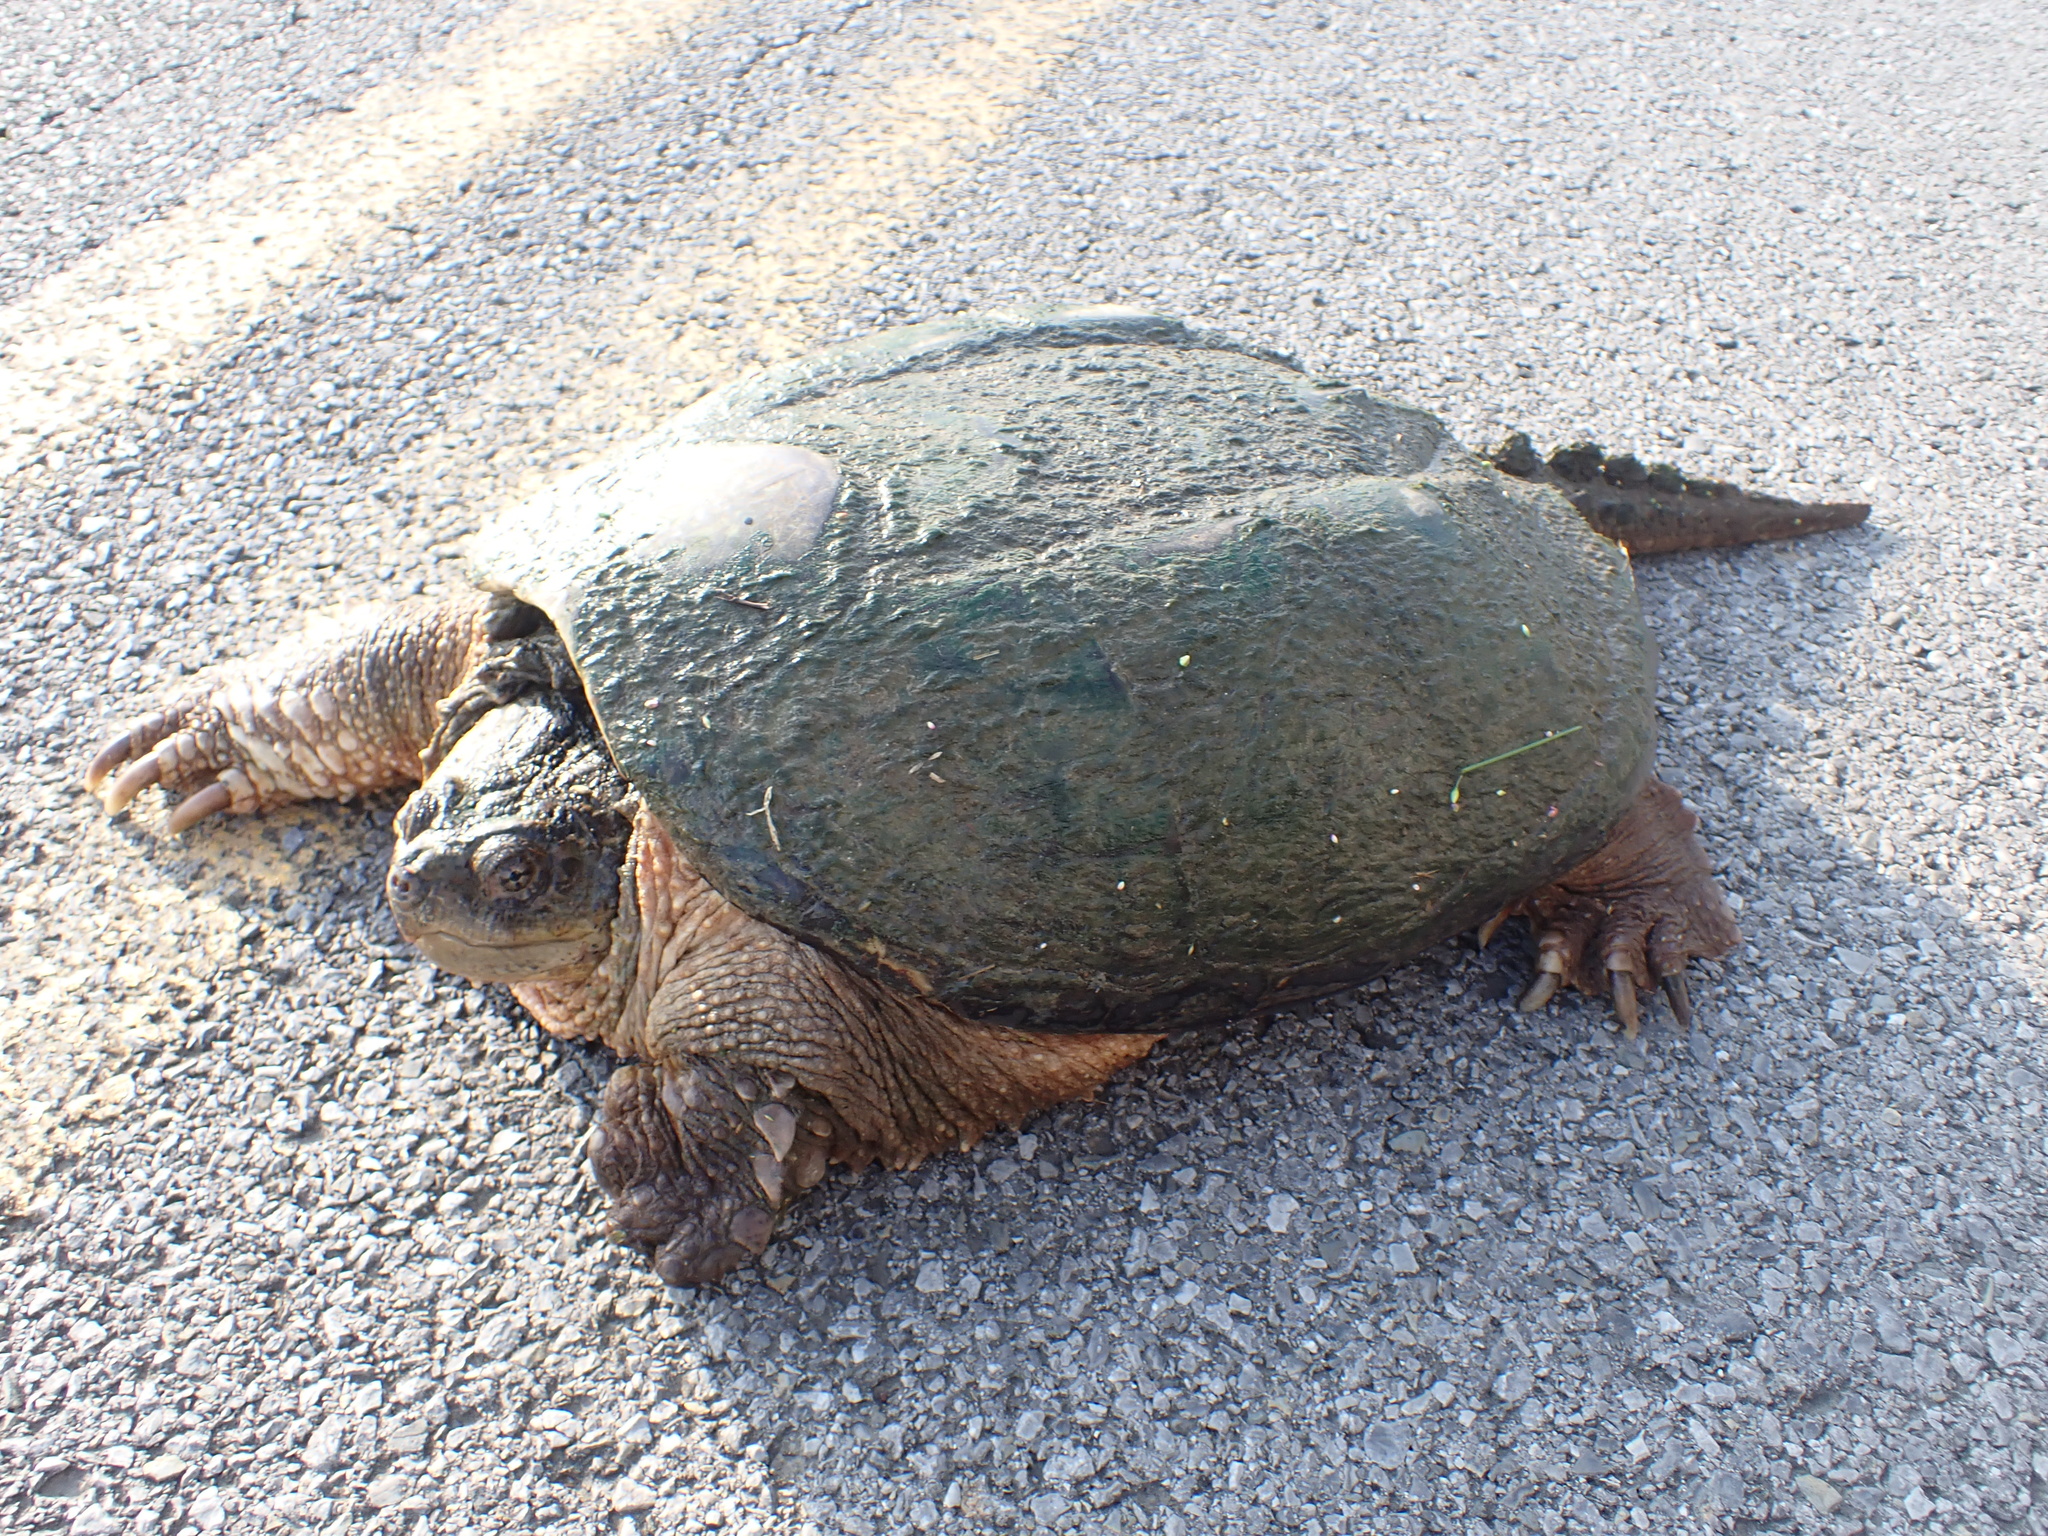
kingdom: Animalia
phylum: Chordata
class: Testudines
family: Chelydridae
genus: Chelydra
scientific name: Chelydra serpentina
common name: Common snapping turtle
